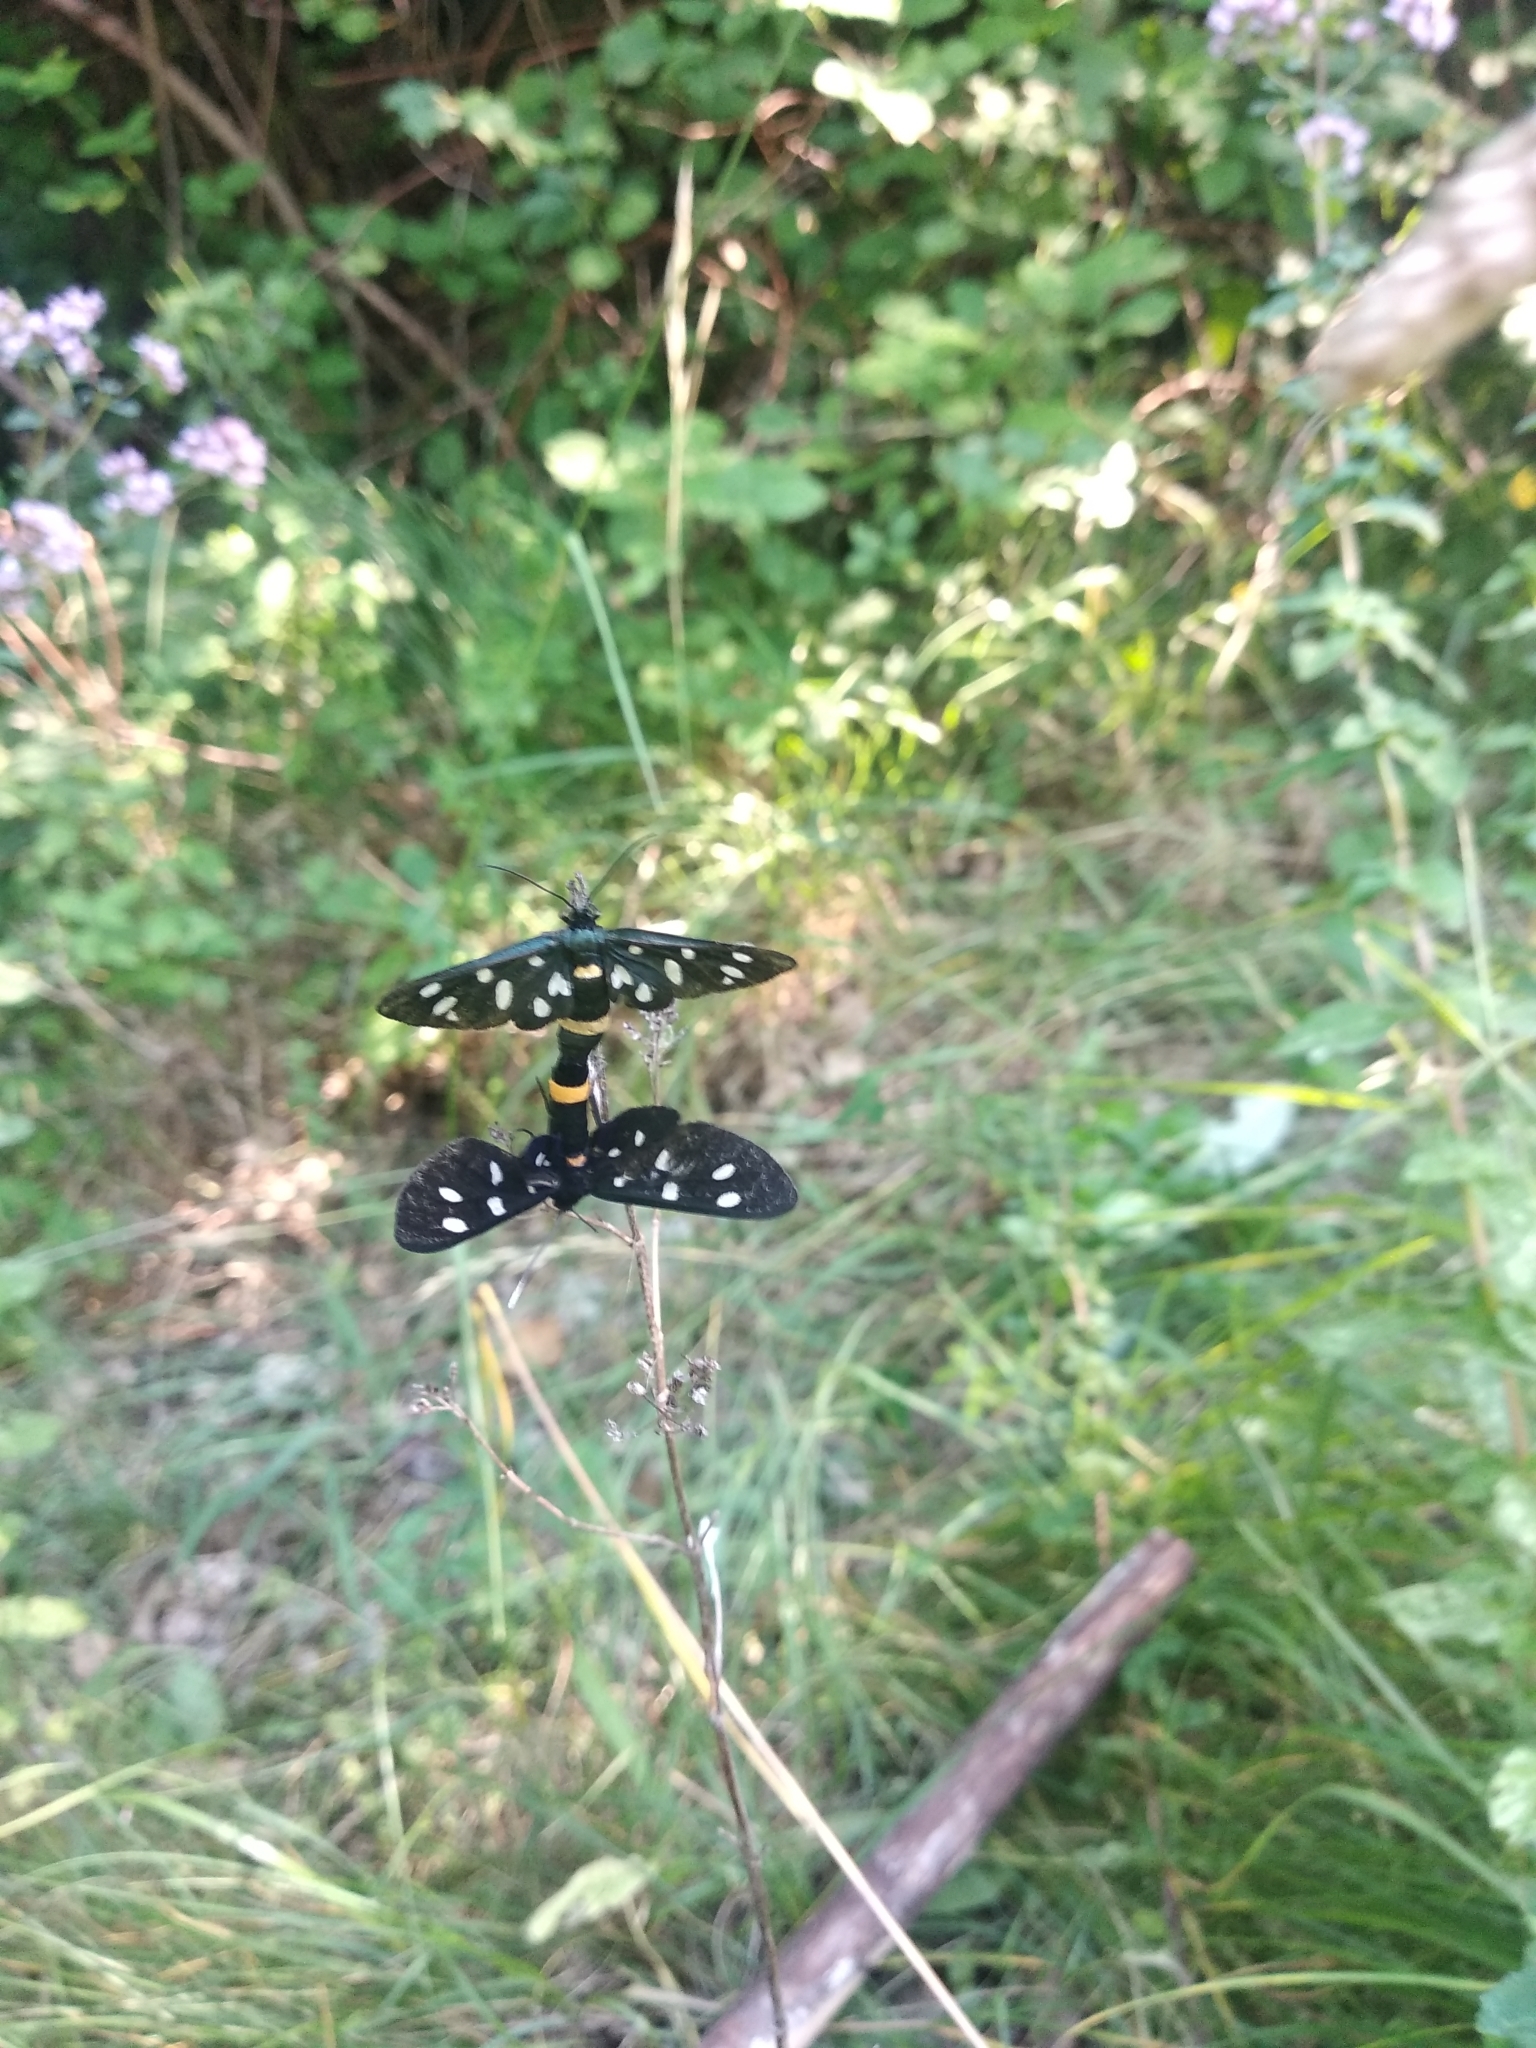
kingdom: Animalia
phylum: Arthropoda
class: Insecta
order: Lepidoptera
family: Erebidae
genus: Amata
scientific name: Amata phegea
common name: Nine-spotted
